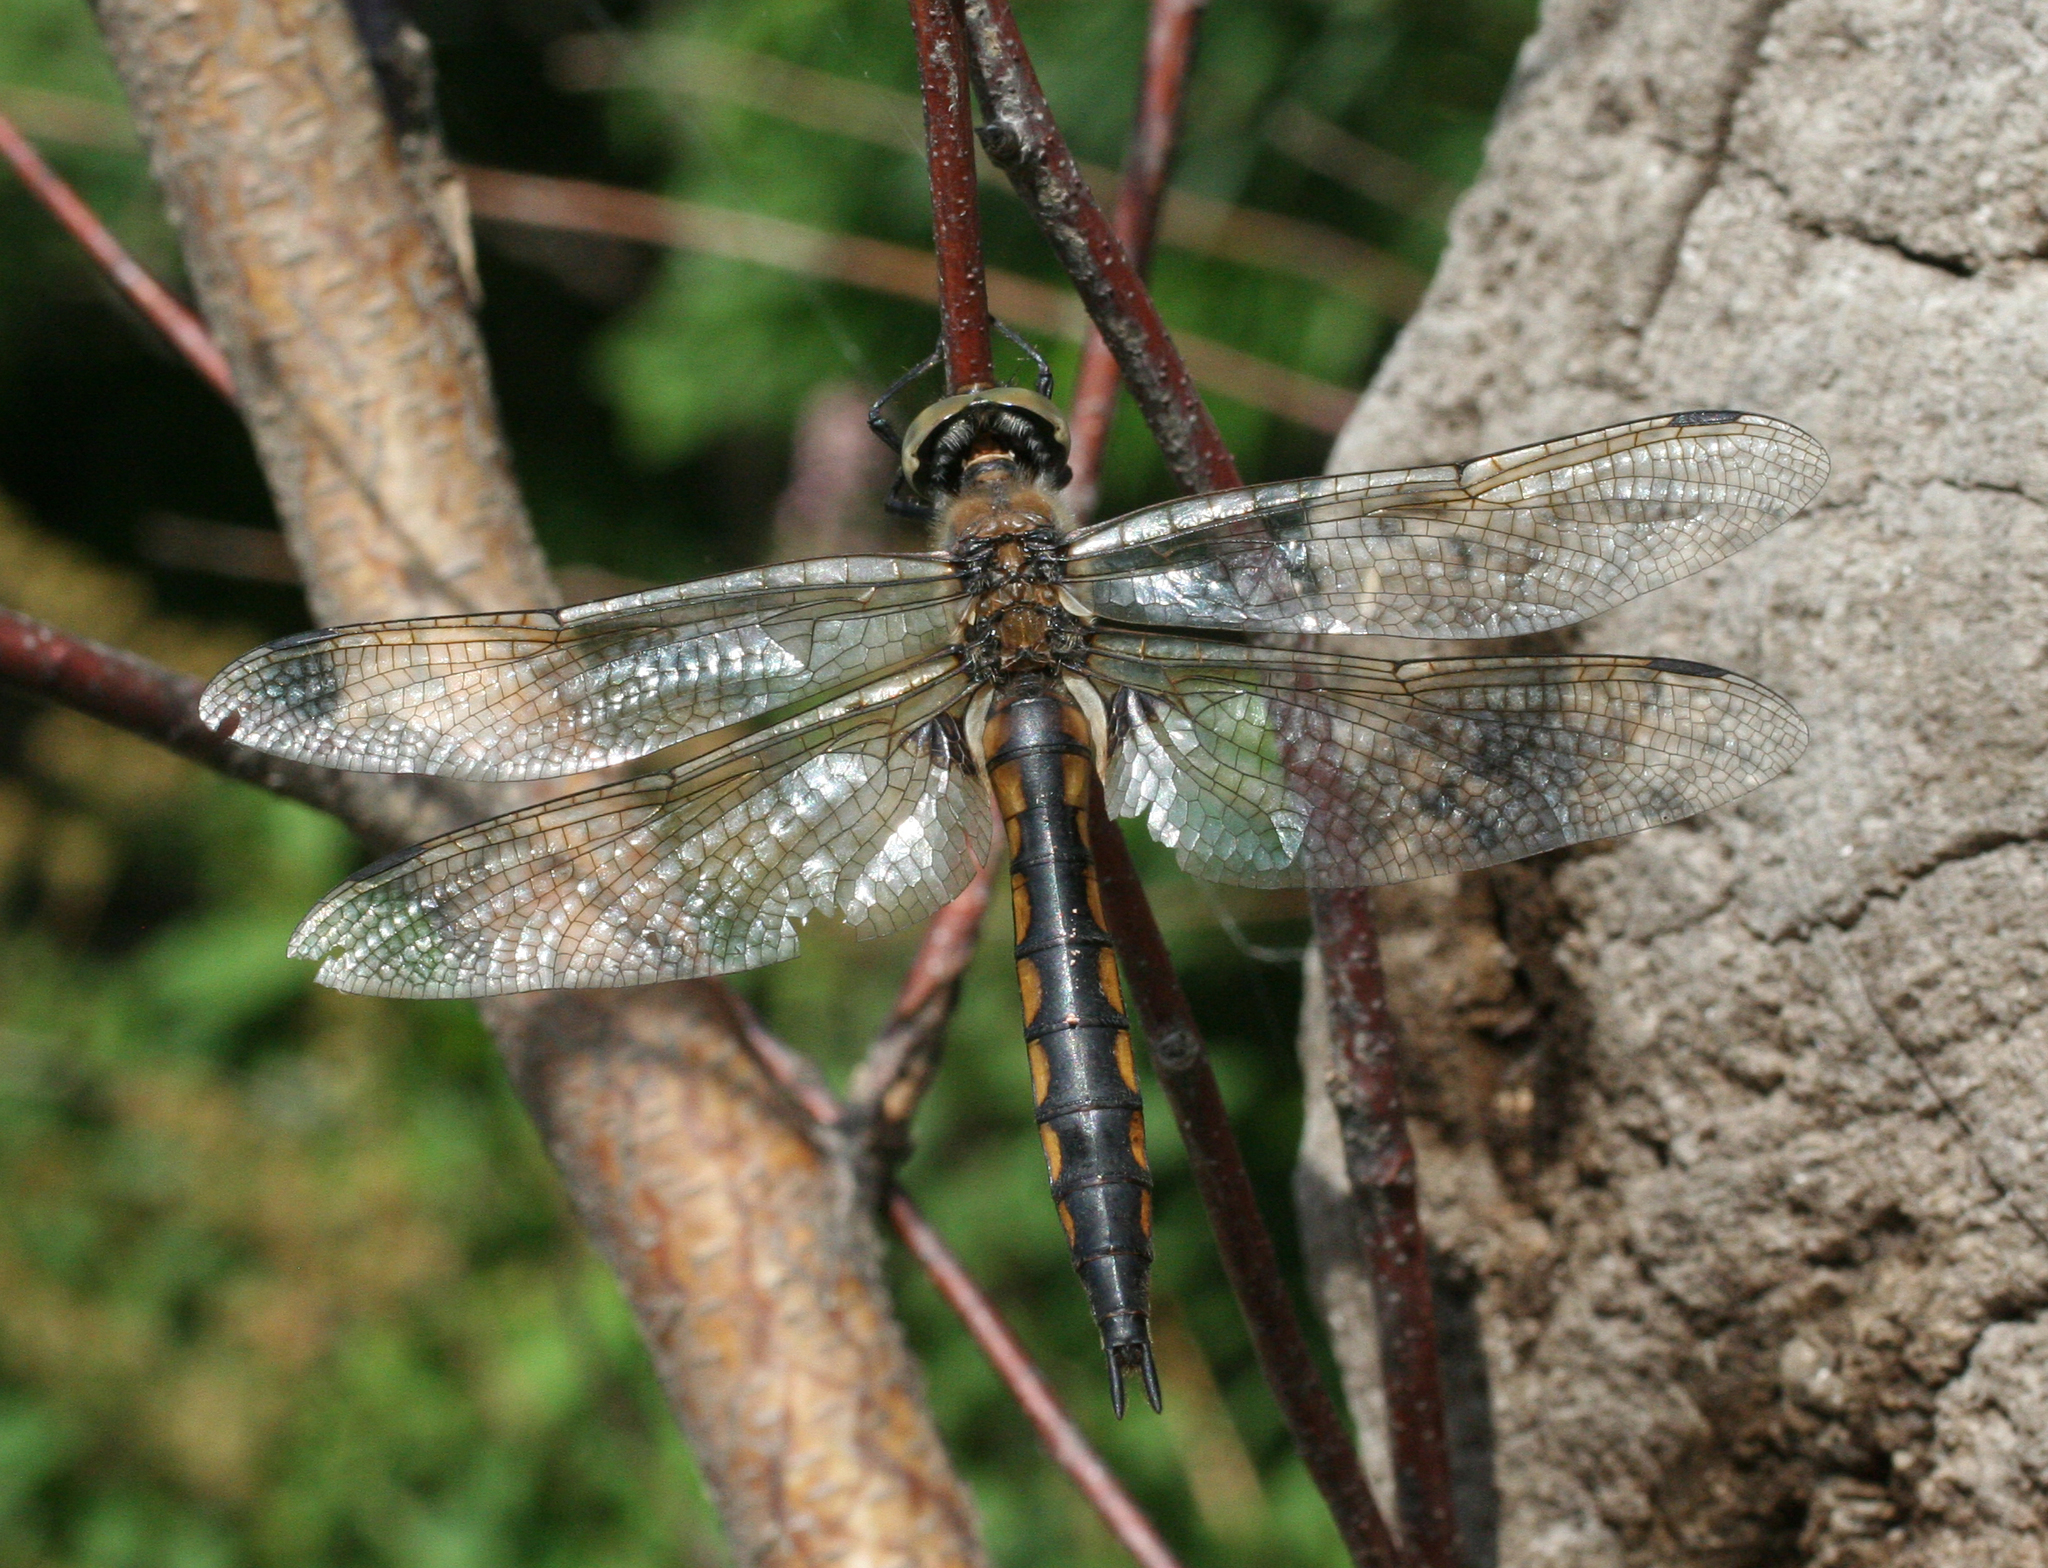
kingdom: Animalia
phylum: Arthropoda
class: Insecta
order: Odonata
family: Corduliidae
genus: Epitheca
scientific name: Epitheca bimaculata
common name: Eurasian baskettail
